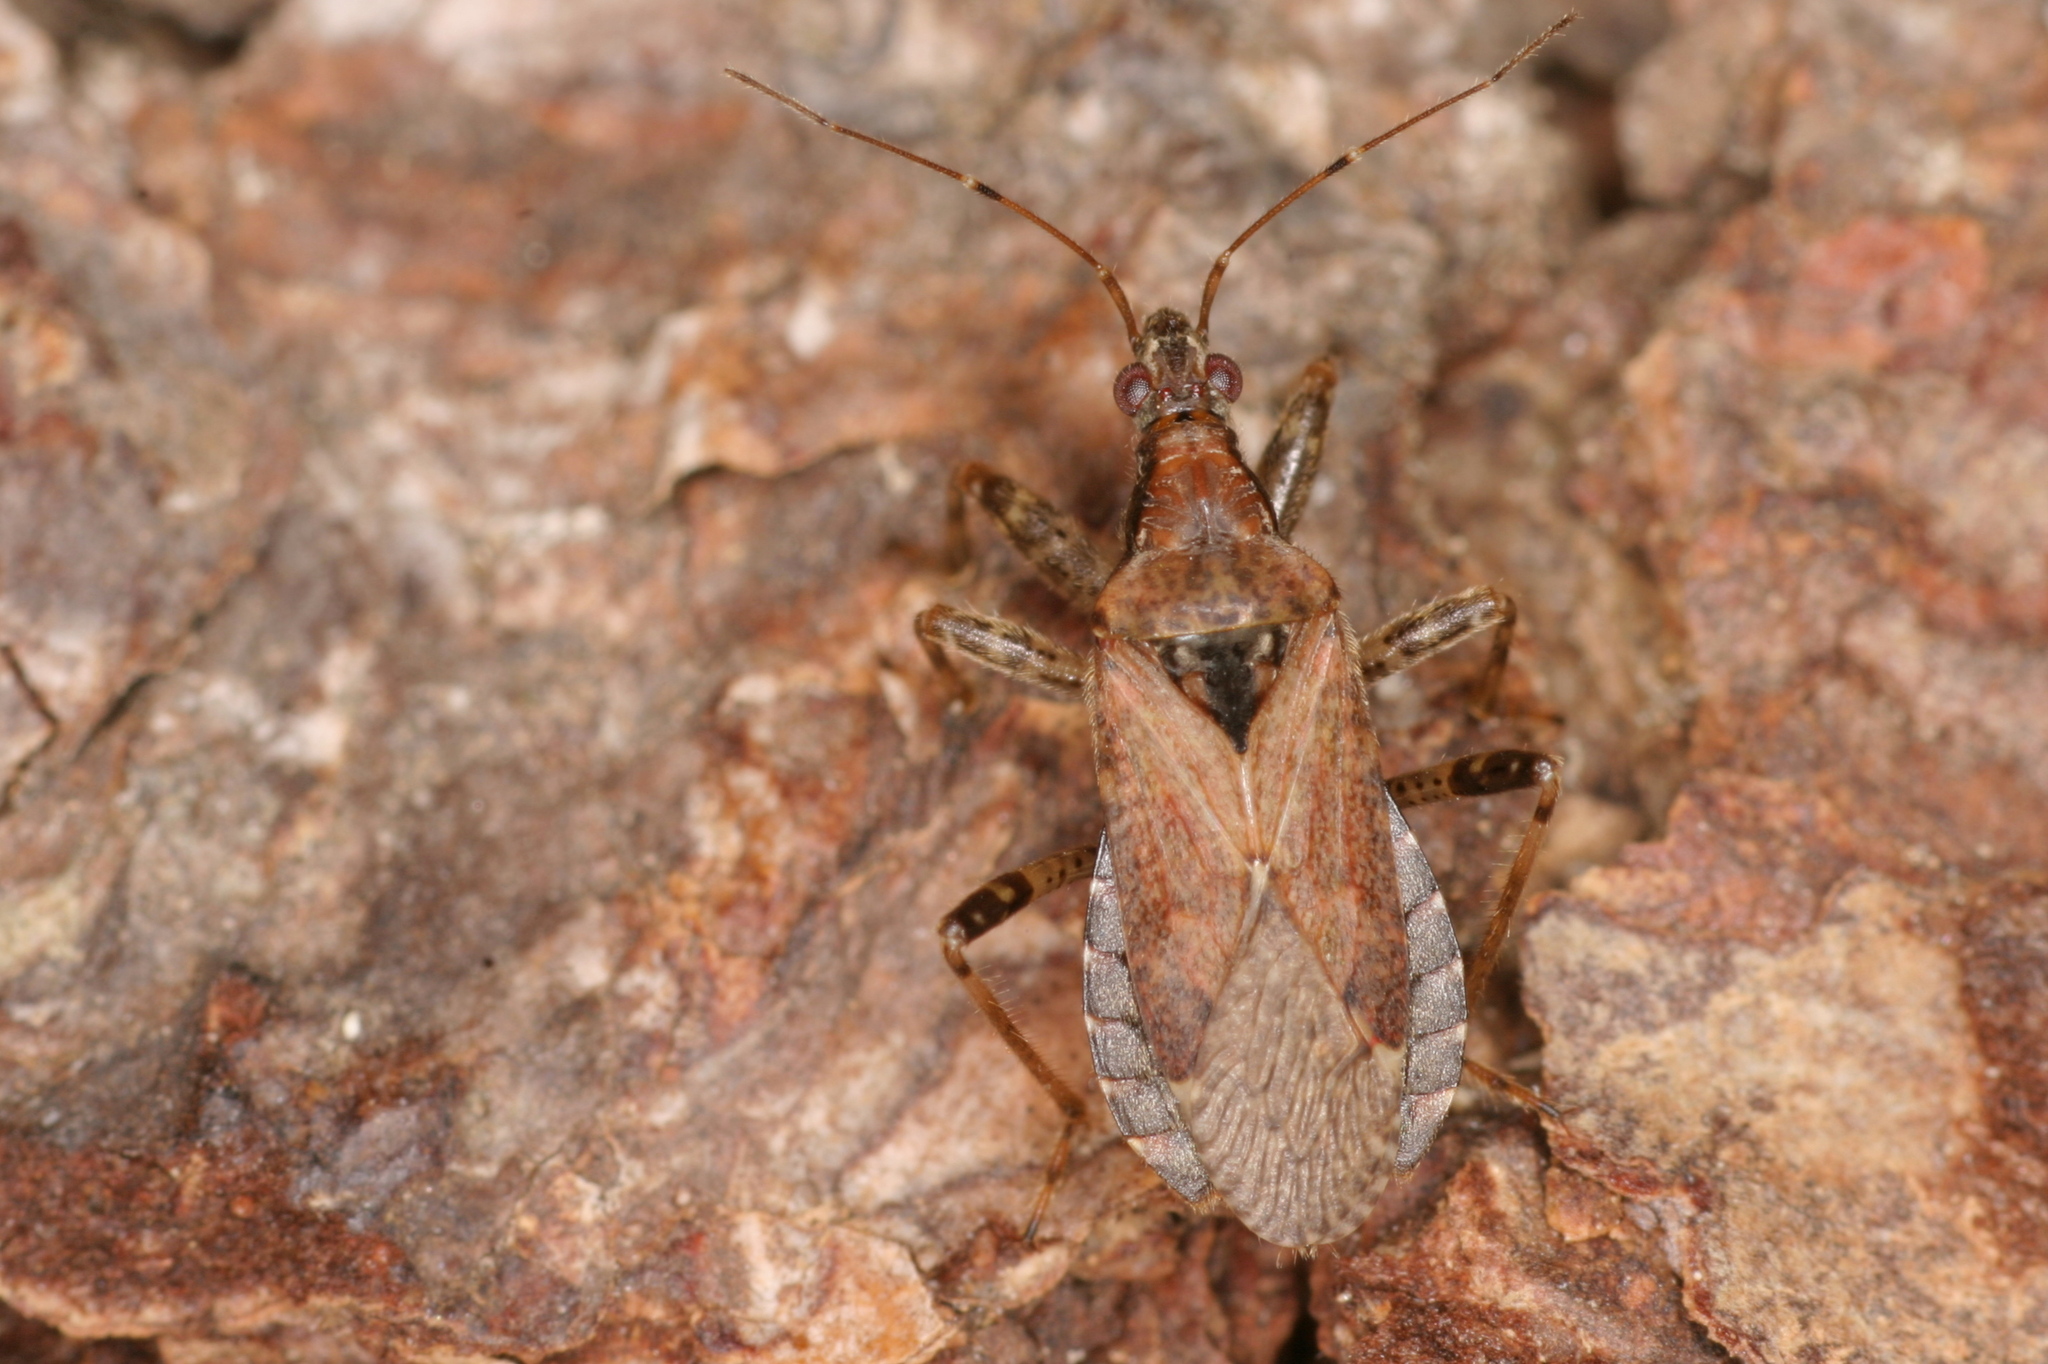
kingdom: Animalia
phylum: Arthropoda
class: Insecta
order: Hemiptera
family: Nabidae
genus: Himacerus
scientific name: Himacerus mirmicoides
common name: Ant damsel bug
